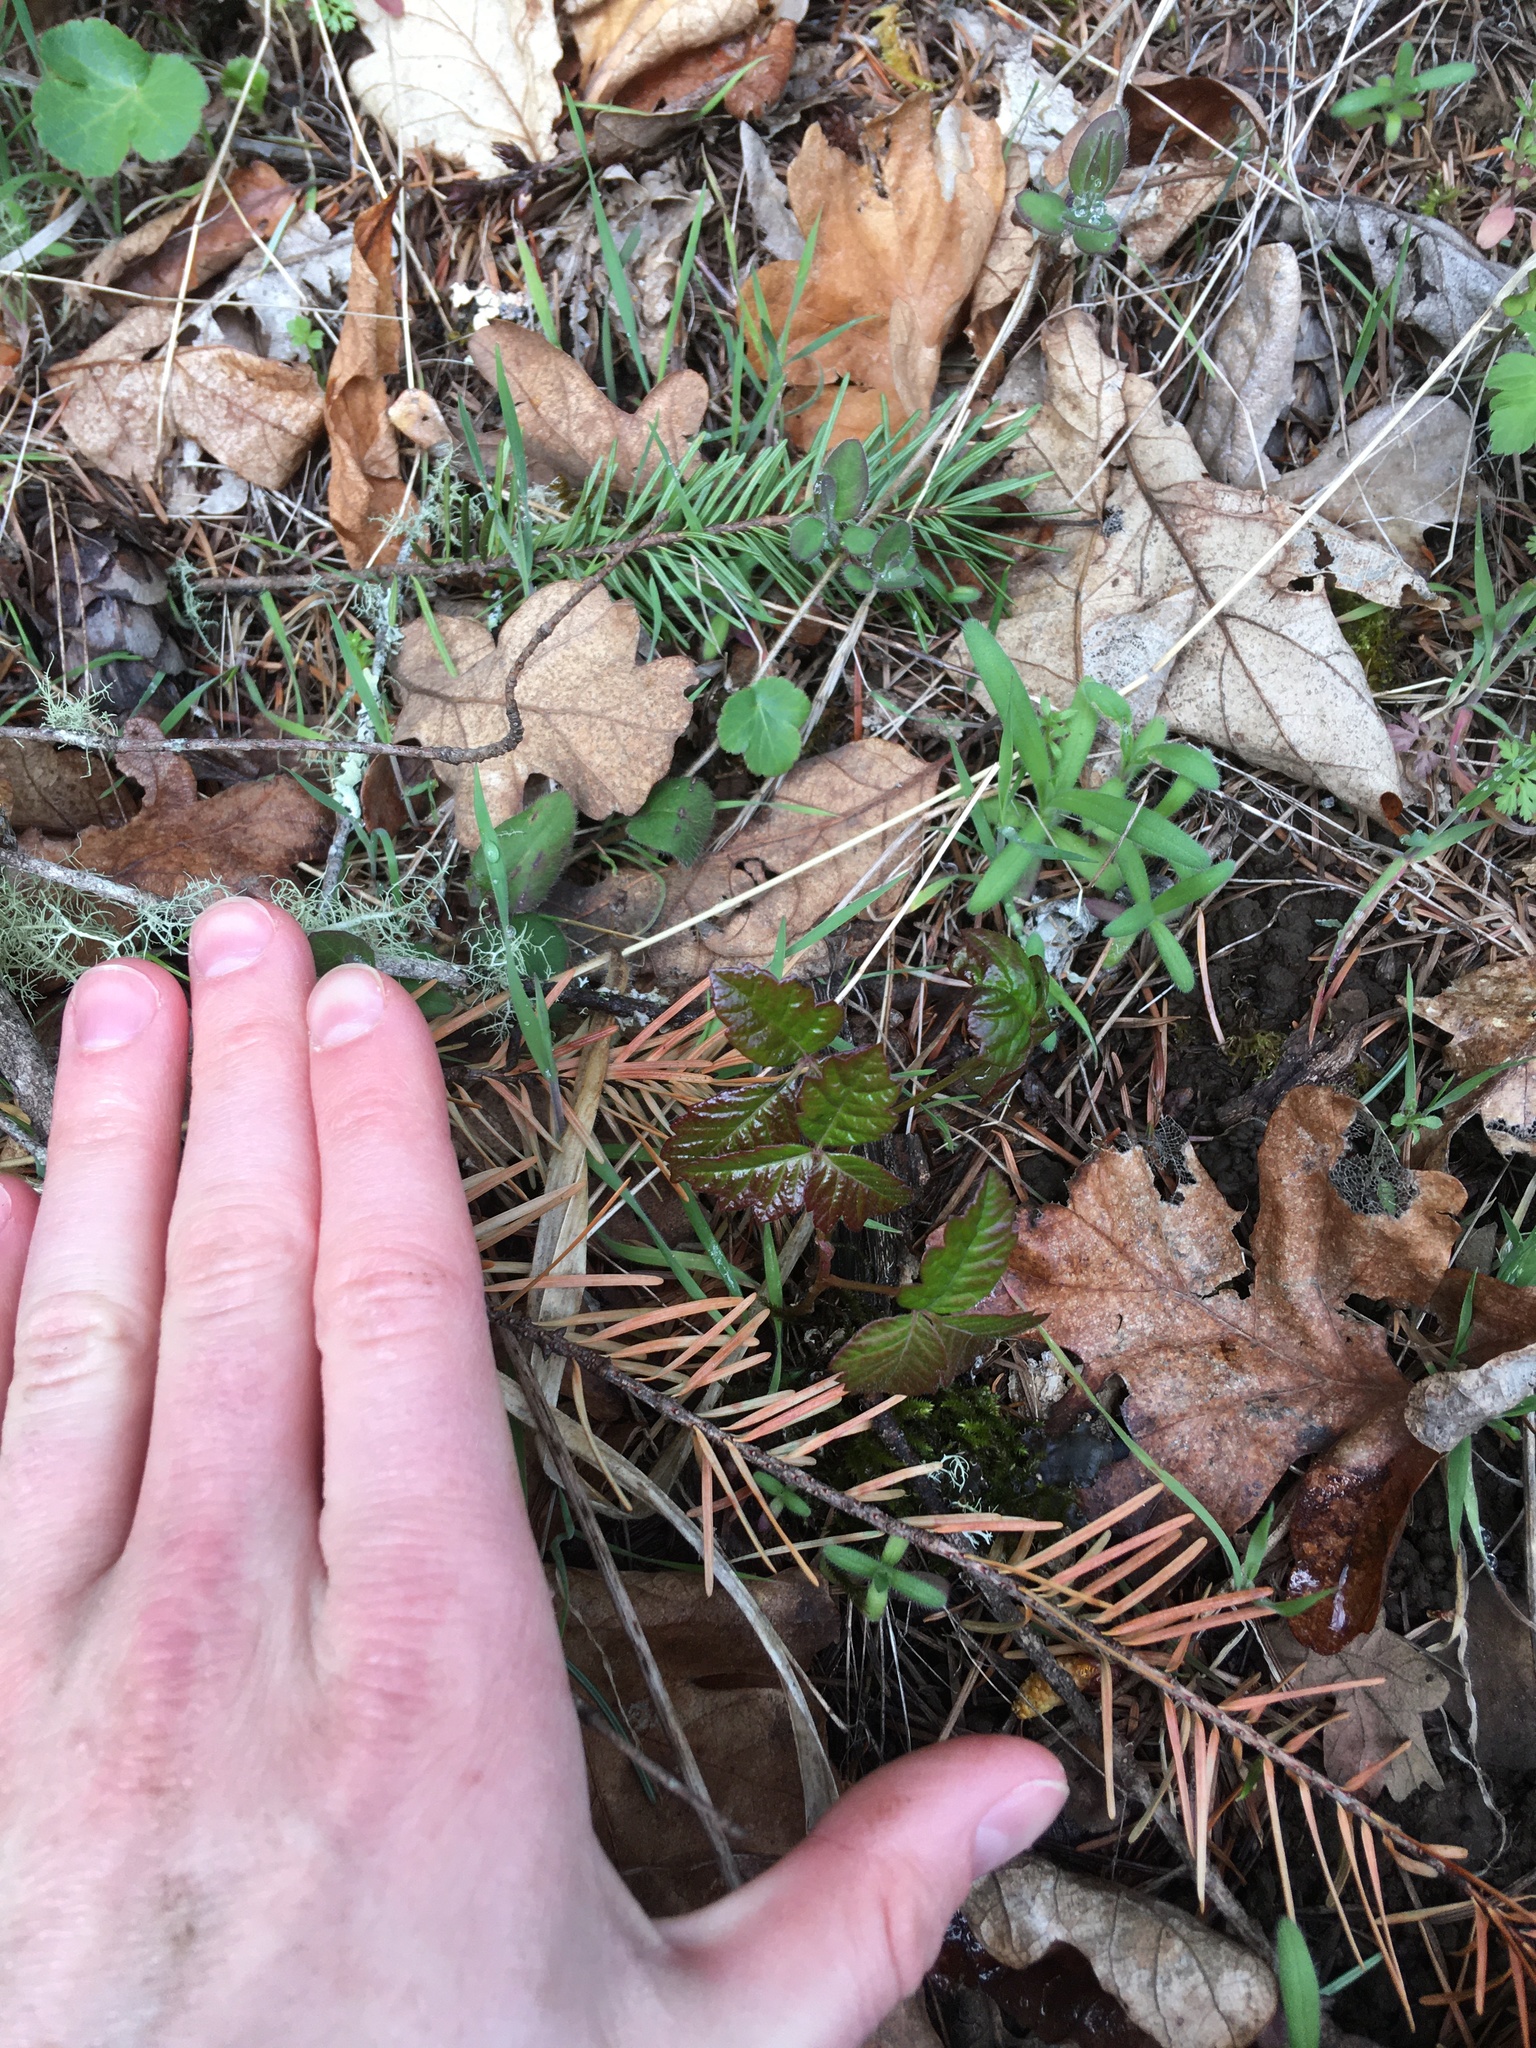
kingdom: Plantae
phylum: Tracheophyta
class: Magnoliopsida
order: Sapindales
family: Anacardiaceae
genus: Toxicodendron
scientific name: Toxicodendron diversilobum
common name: Pacific poison-oak
